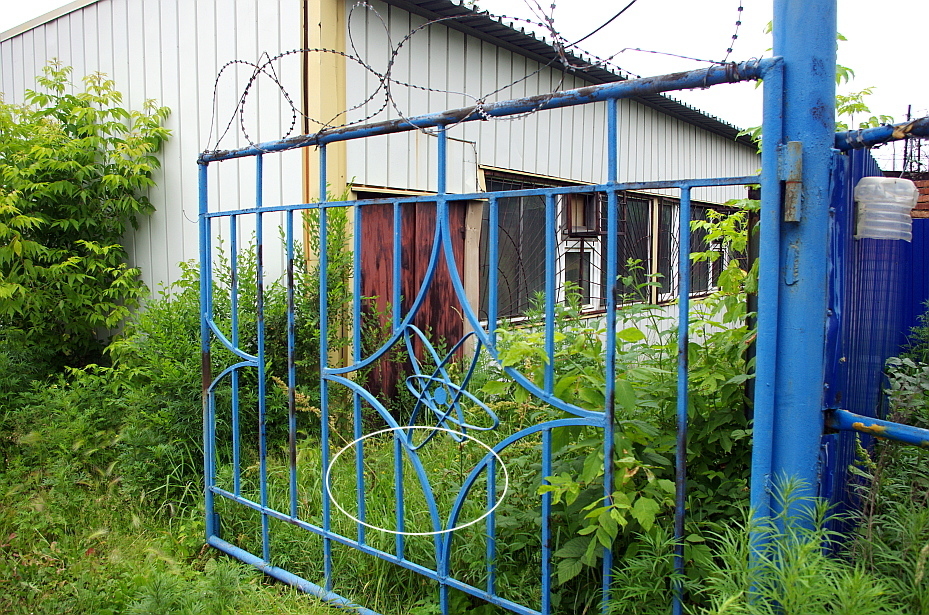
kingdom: Plantae
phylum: Tracheophyta
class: Magnoliopsida
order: Rosales
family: Rosaceae
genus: Geum
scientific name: Geum aleppicum
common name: Yellow avens
